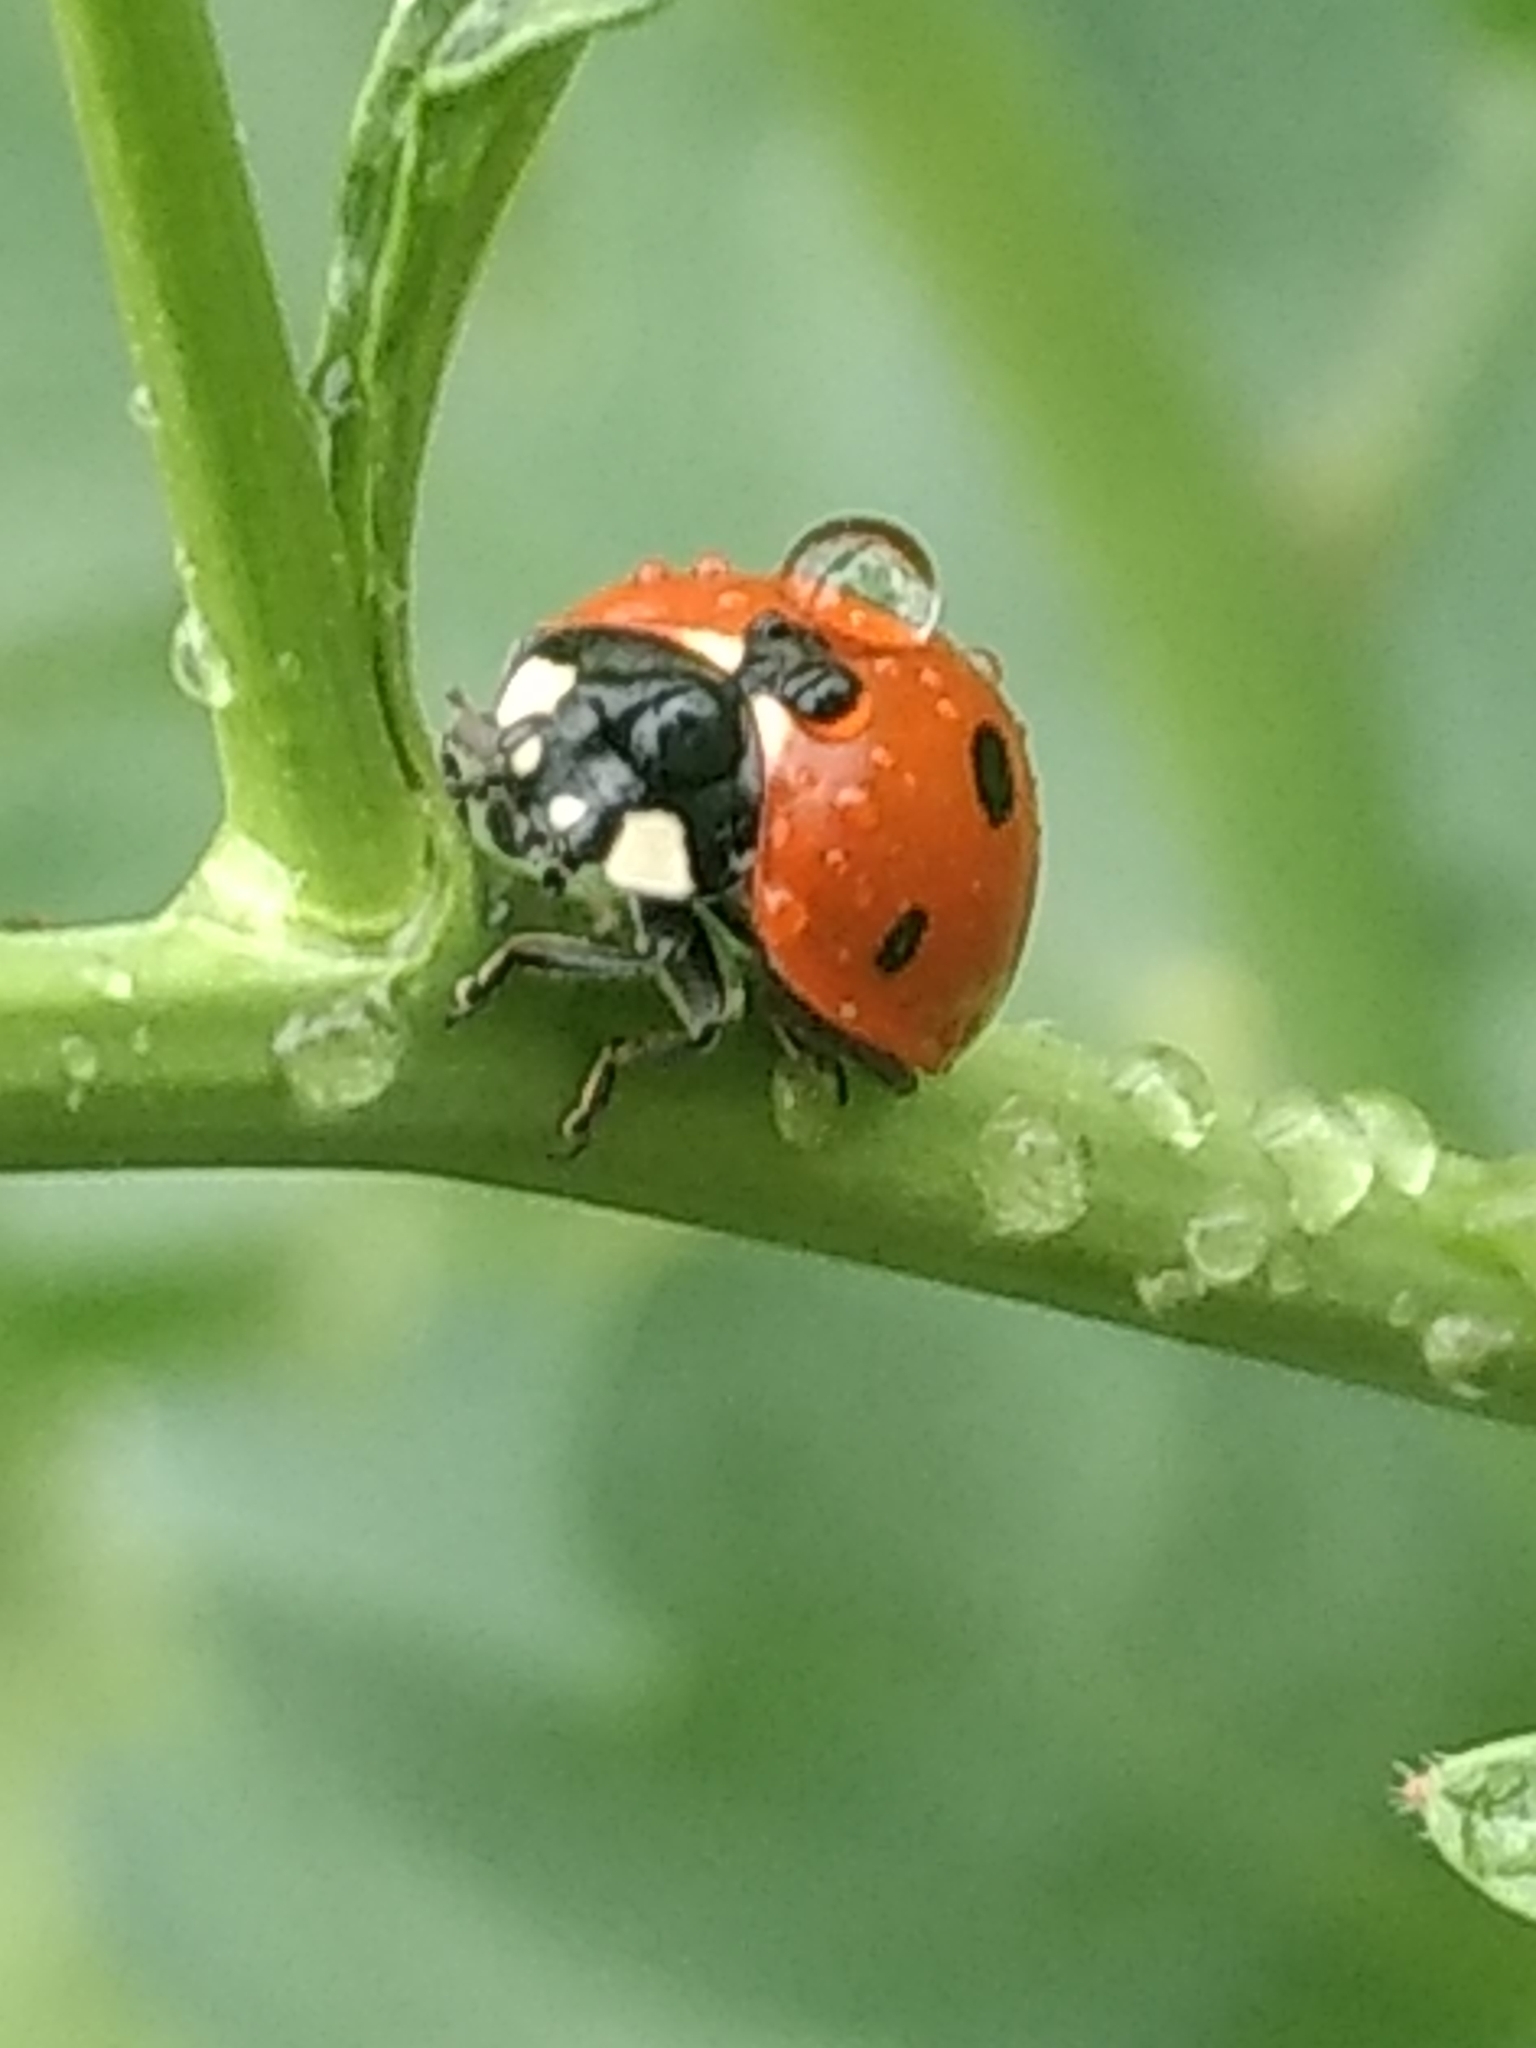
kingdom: Animalia
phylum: Arthropoda
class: Insecta
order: Coleoptera
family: Coccinellidae
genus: Coccinella
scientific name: Coccinella septempunctata
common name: Sevenspotted lady beetle
